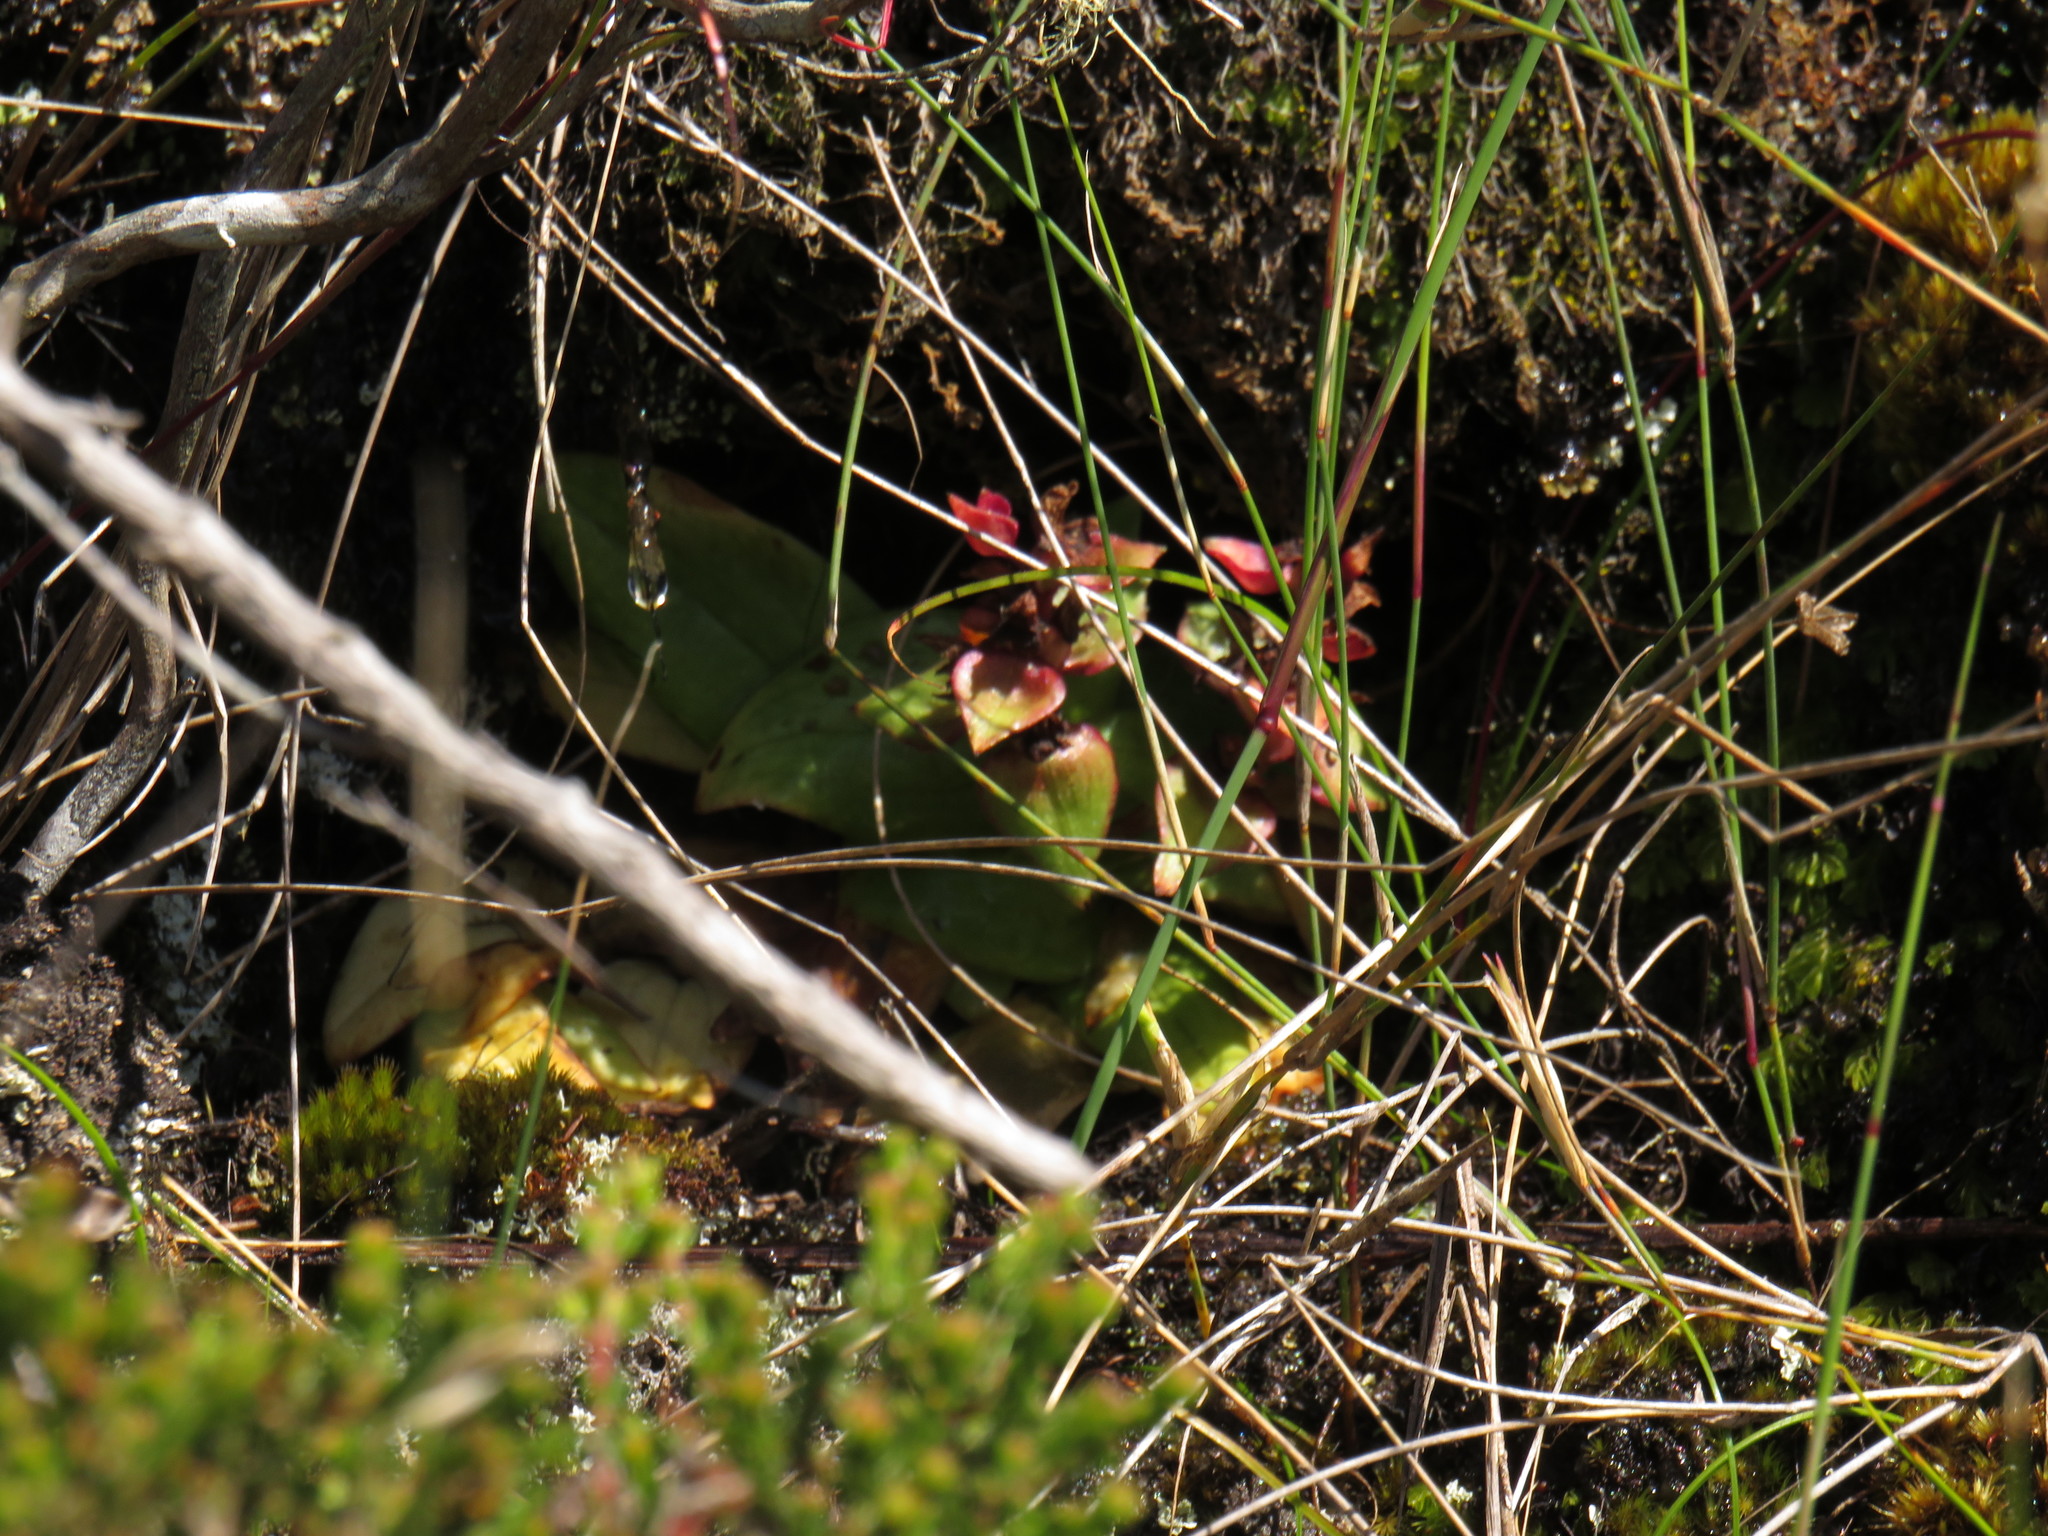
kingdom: Plantae
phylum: Tracheophyta
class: Liliopsida
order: Asparagales
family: Orchidaceae
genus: Satyrium
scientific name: Satyrium bracteatum
